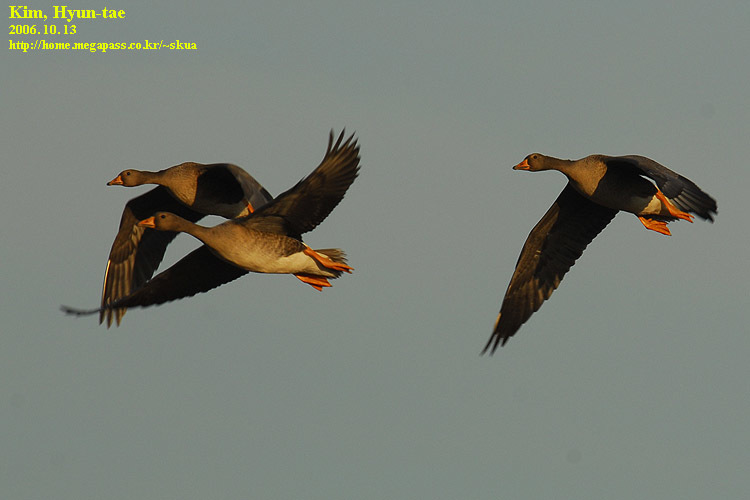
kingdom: Animalia
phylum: Chordata
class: Aves
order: Anseriformes
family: Anatidae
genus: Anser
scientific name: Anser albifrons
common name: Greater white-fronted goose
